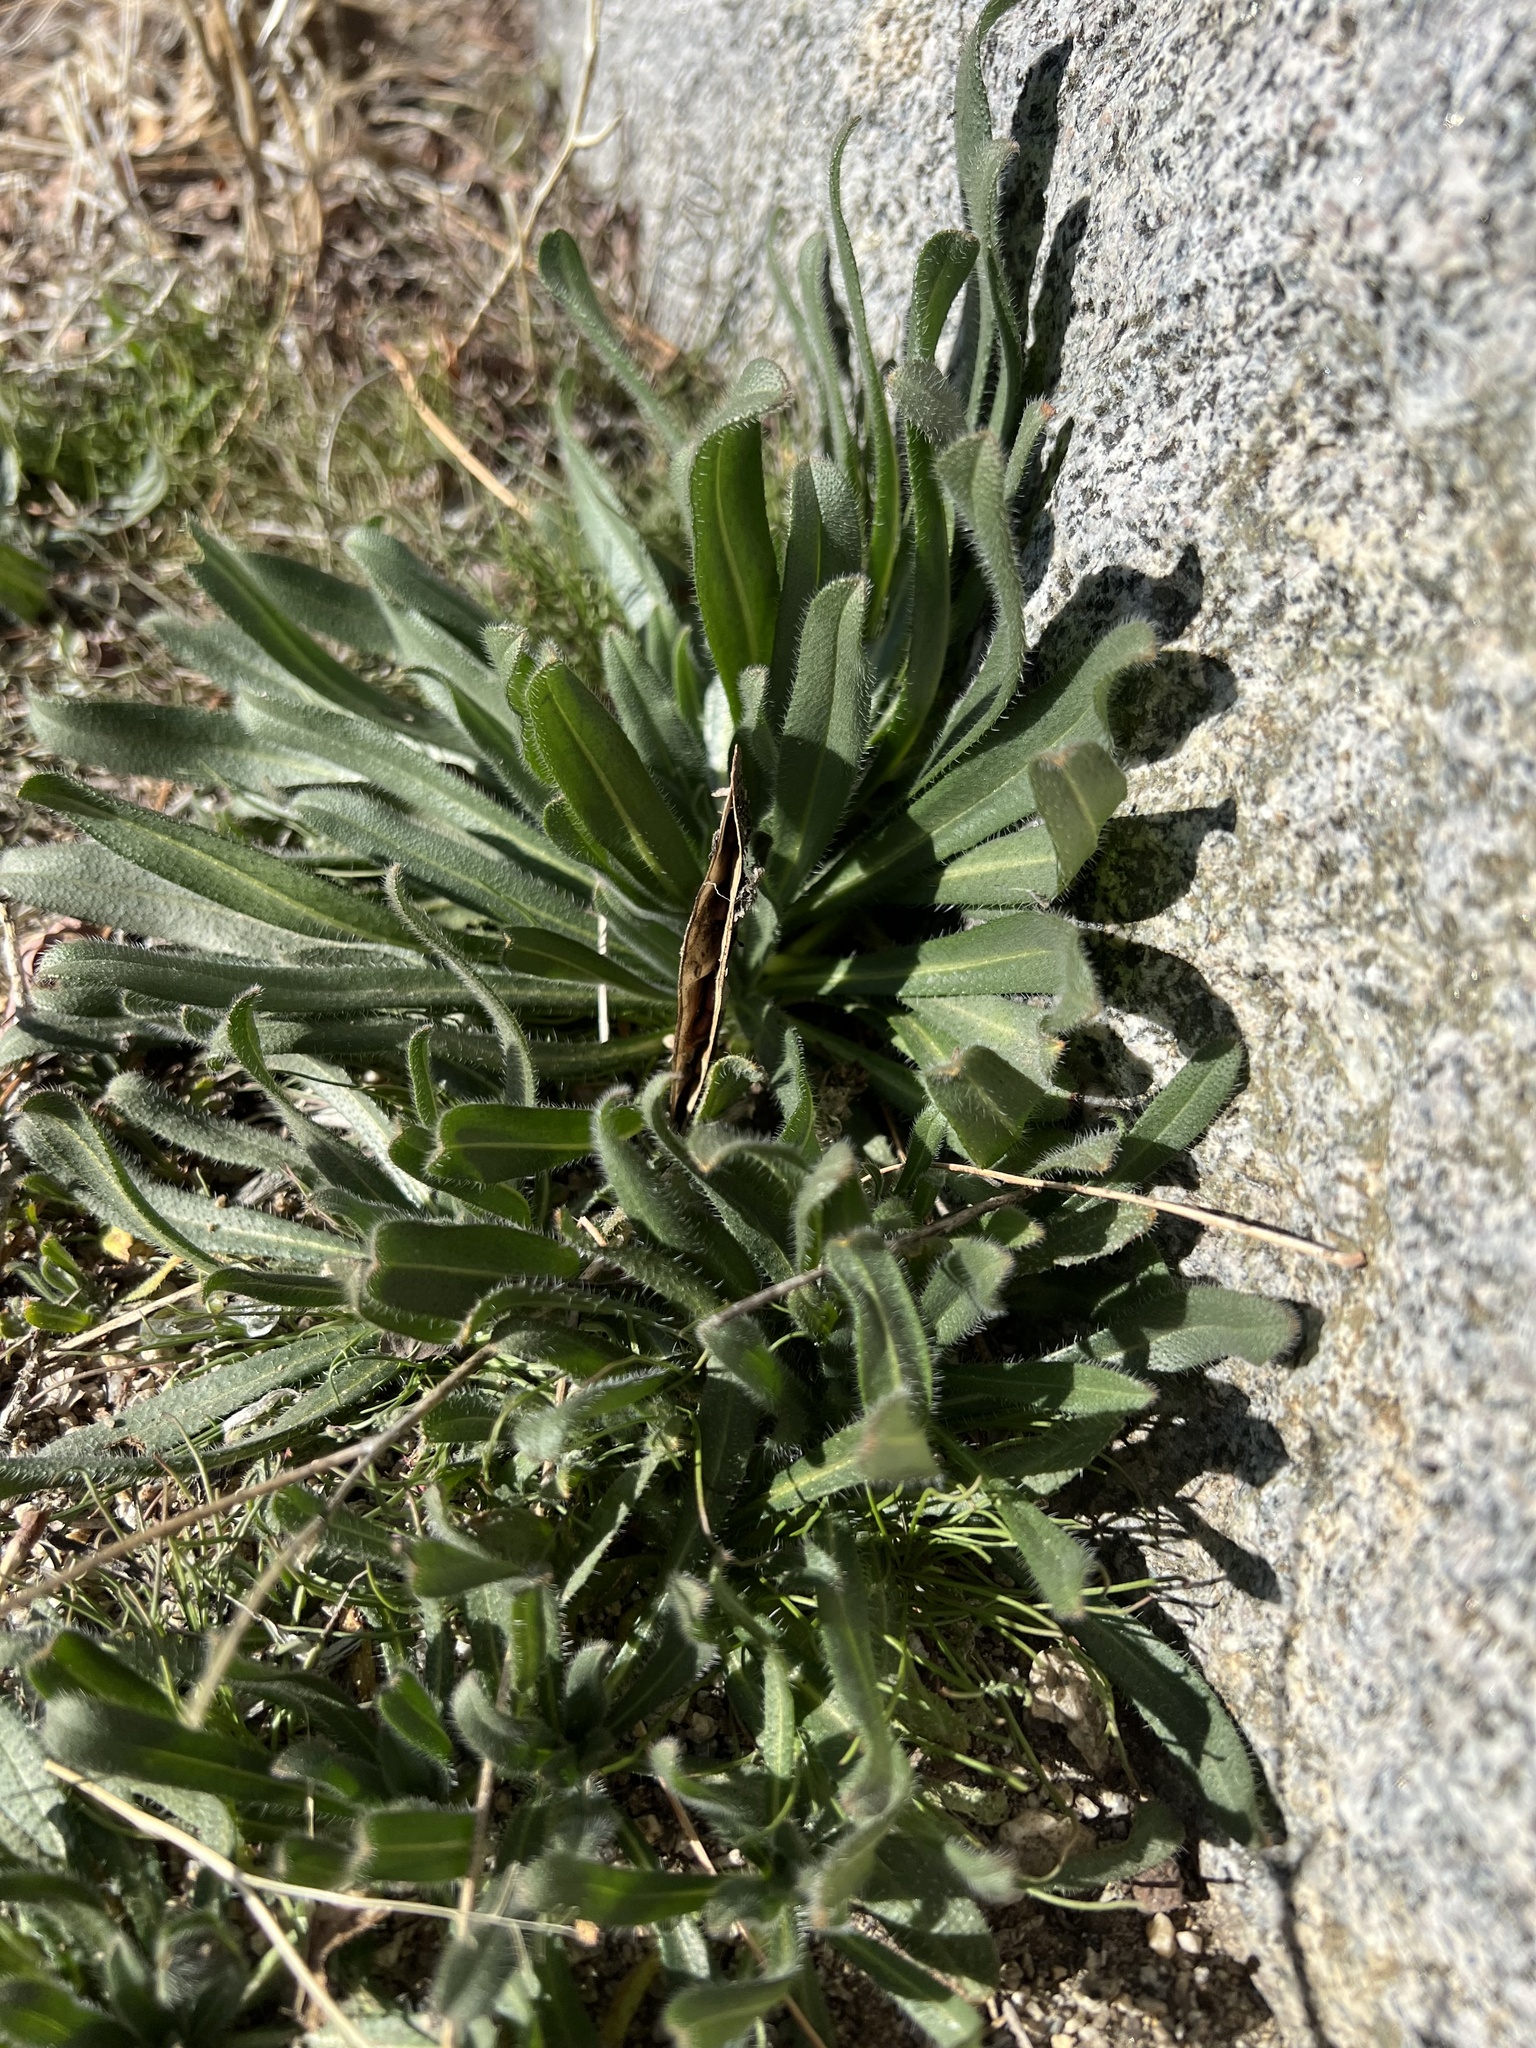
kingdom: Plantae
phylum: Tracheophyta
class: Magnoliopsida
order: Boraginales
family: Boraginaceae
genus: Amsinckia
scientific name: Amsinckia tessellata
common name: Tessellate fiddleneck
